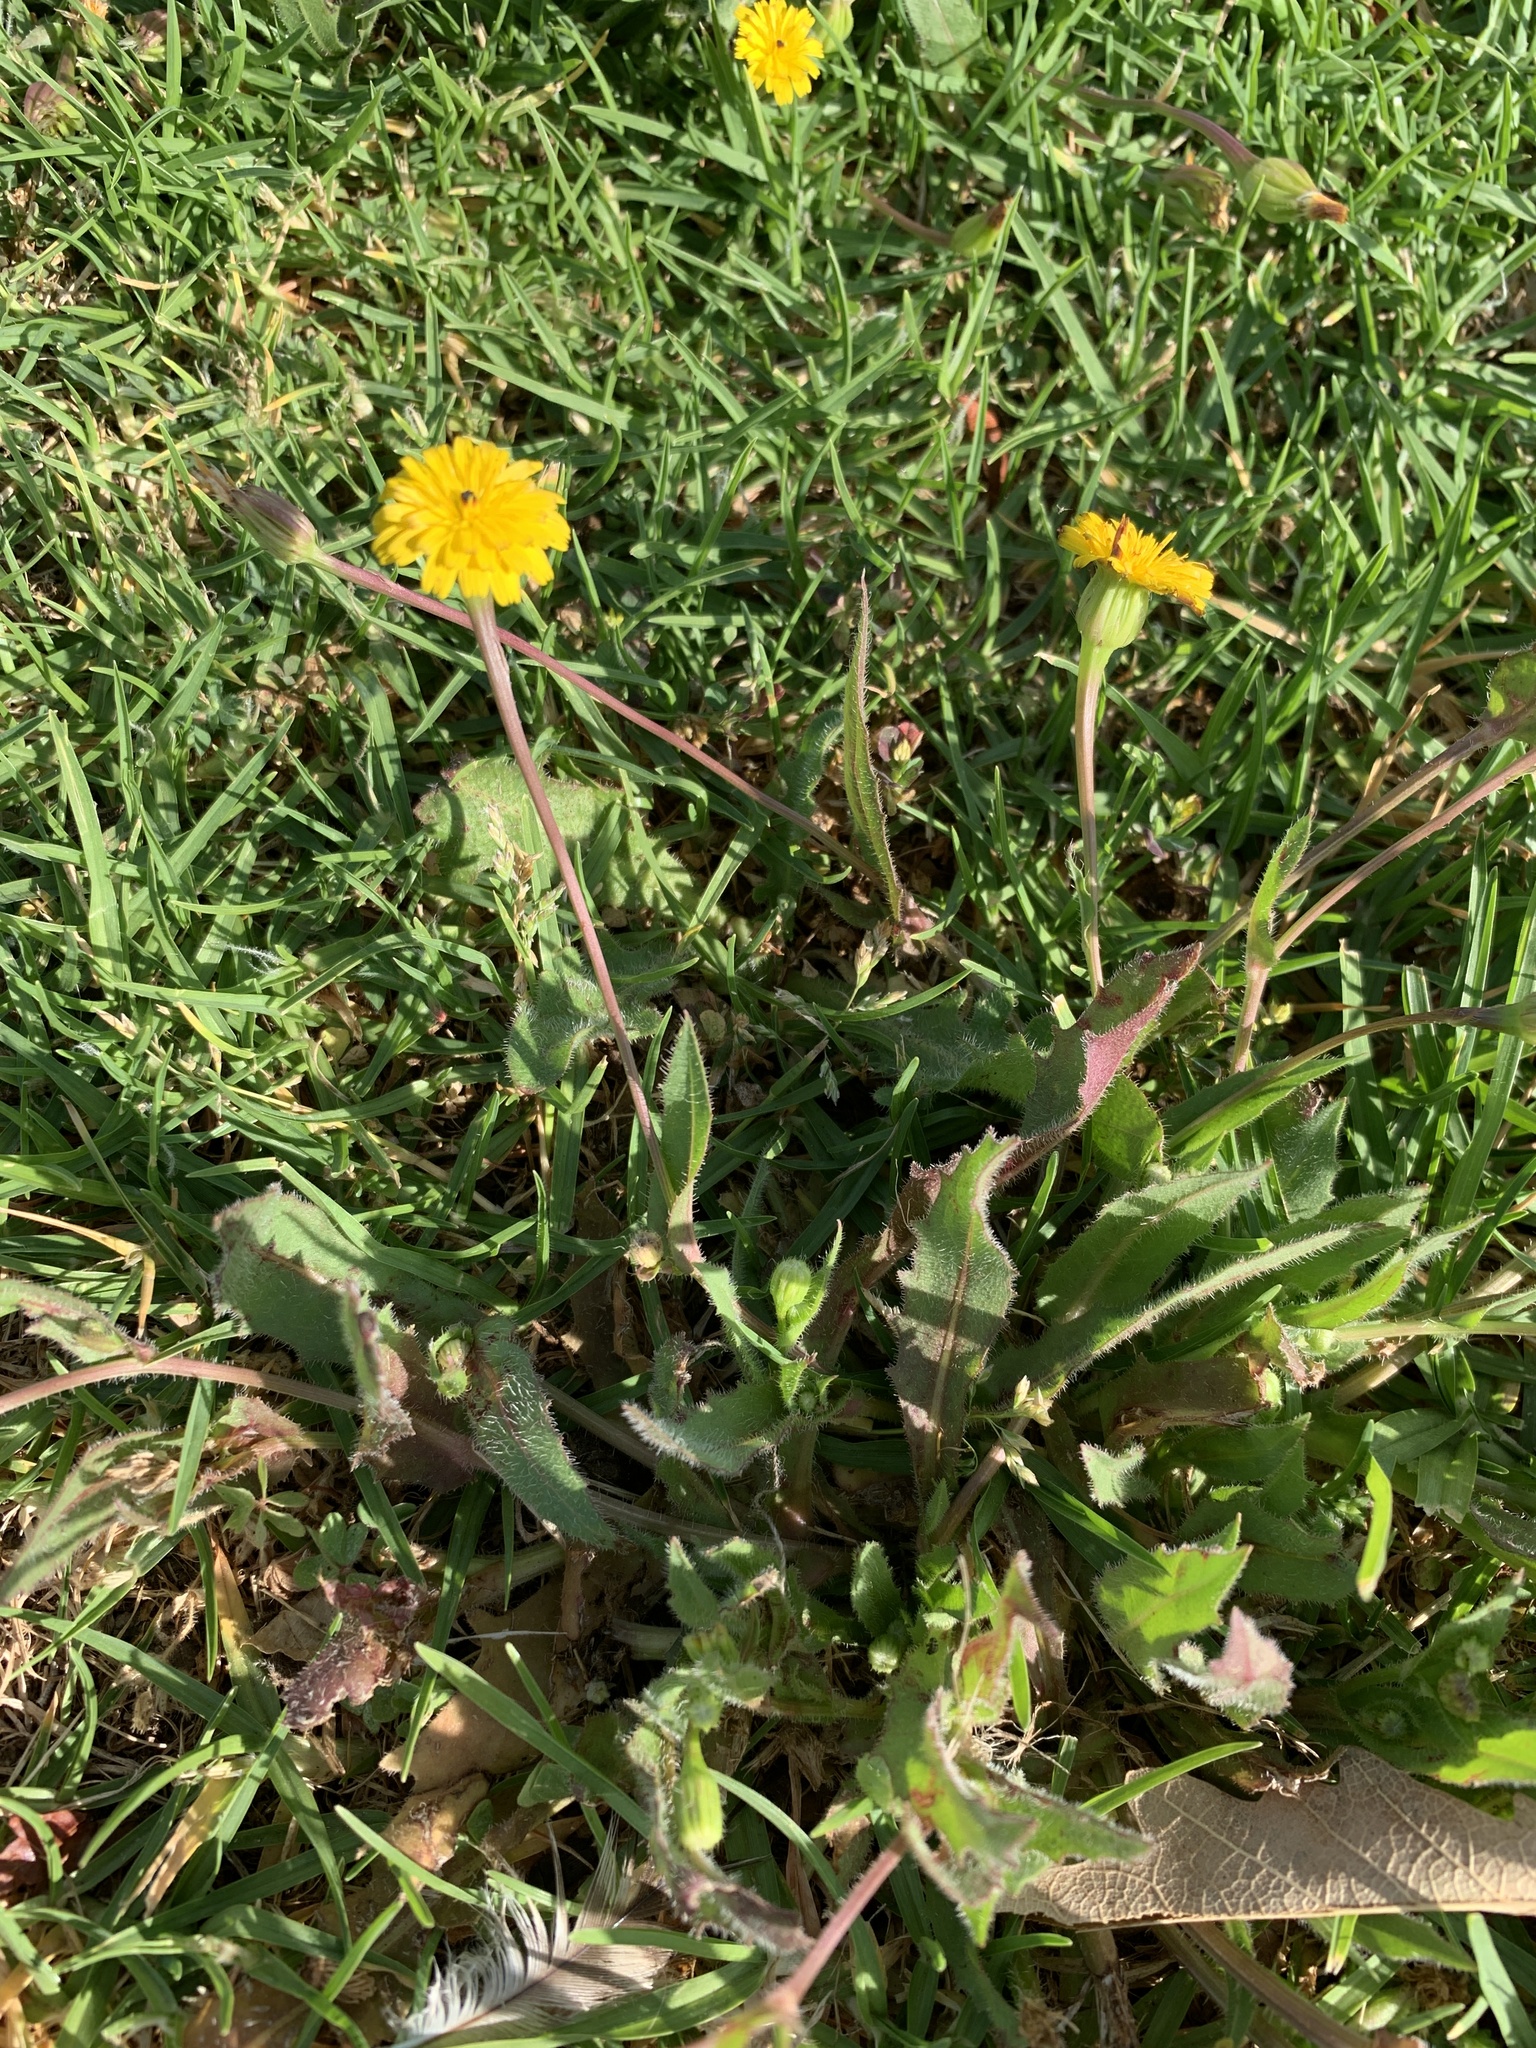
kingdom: Plantae
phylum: Tracheophyta
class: Magnoliopsida
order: Asterales
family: Asteraceae
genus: Hedypnois
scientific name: Hedypnois rhagadioloides
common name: Cretan weed
